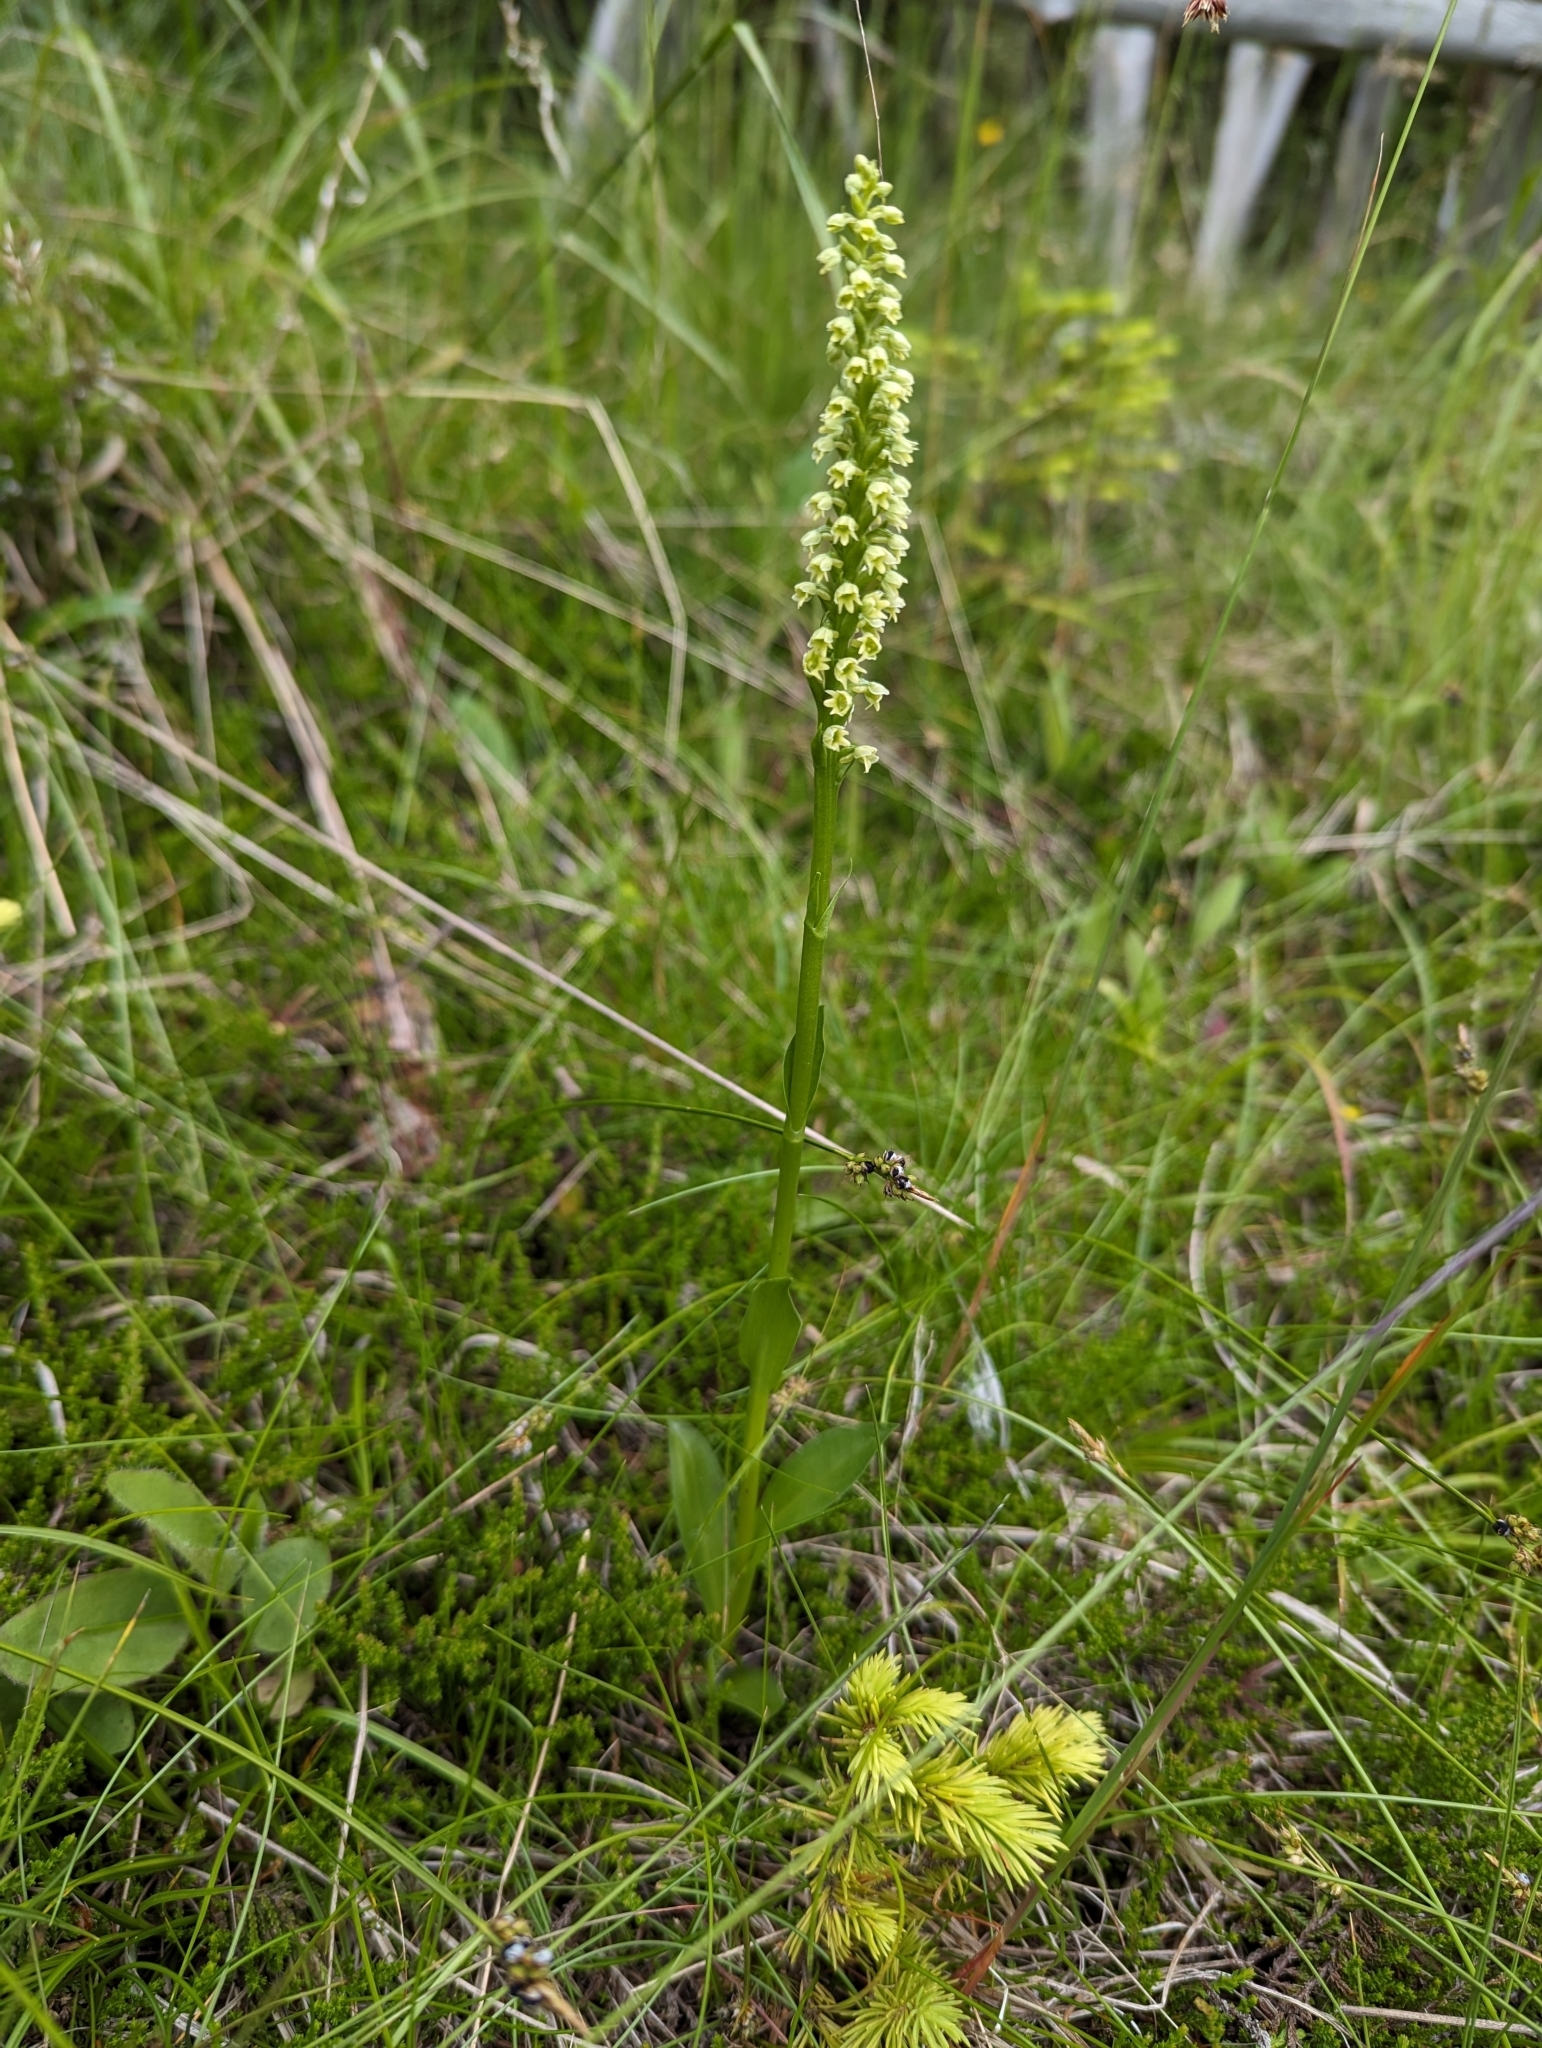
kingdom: Plantae
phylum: Tracheophyta
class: Liliopsida
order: Asparagales
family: Orchidaceae
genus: Pseudorchis
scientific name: Pseudorchis albida
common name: Small-white orchid
